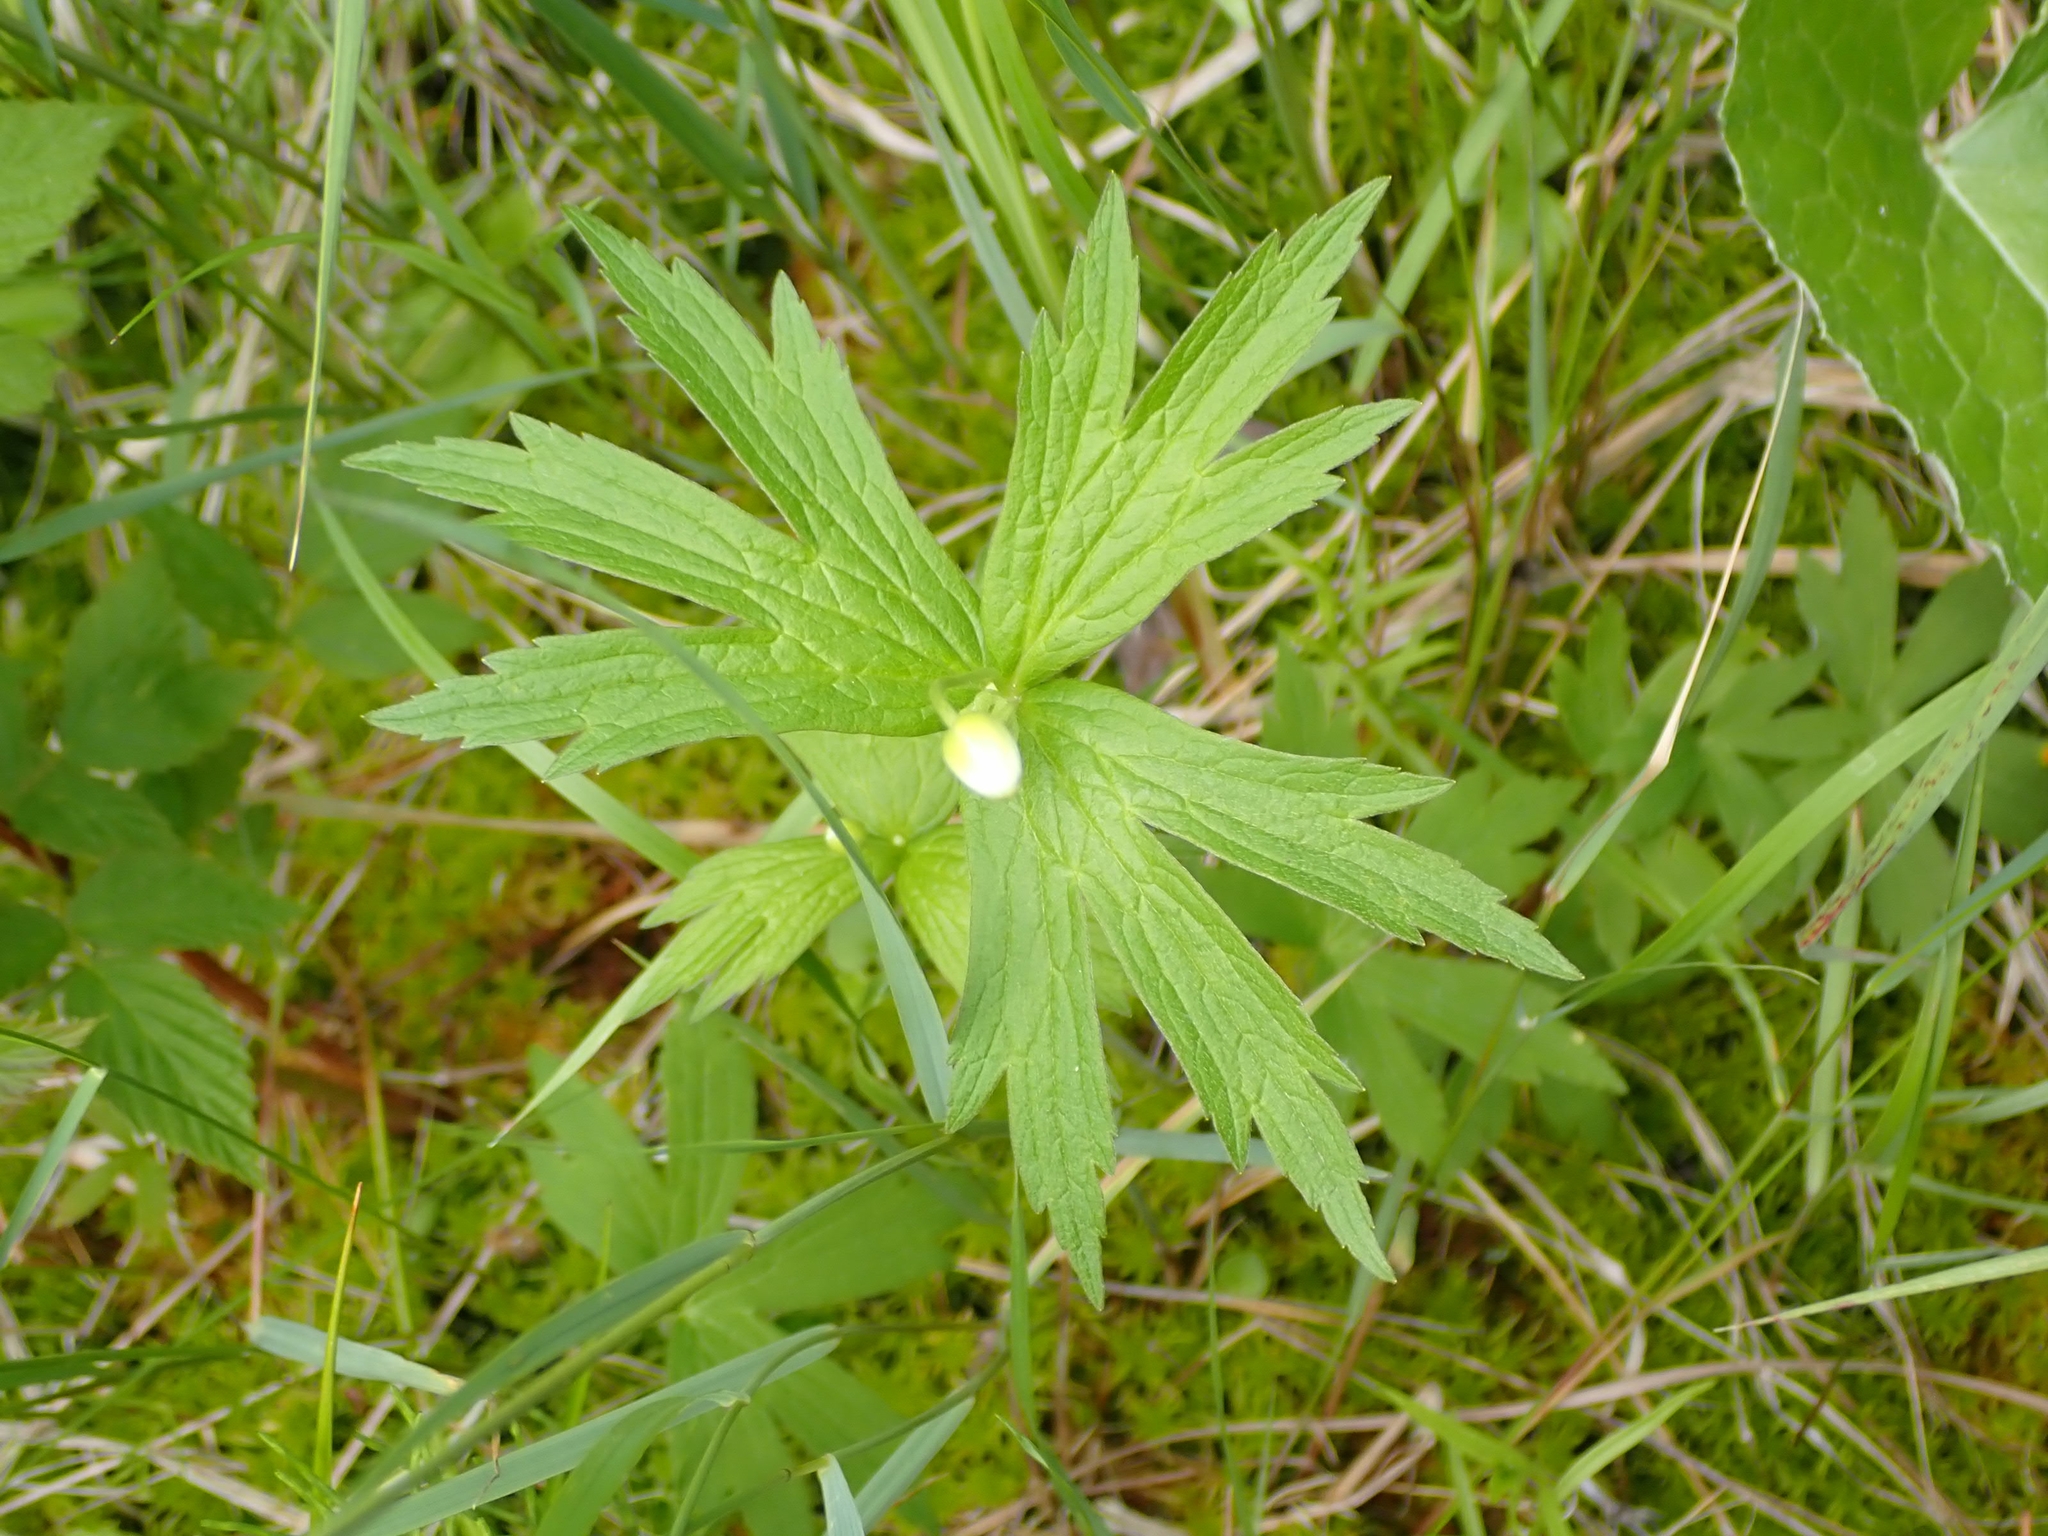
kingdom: Plantae
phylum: Tracheophyta
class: Magnoliopsida
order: Ranunculales
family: Ranunculaceae
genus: Anemonastrum
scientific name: Anemonastrum canadense
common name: Canada anemone
